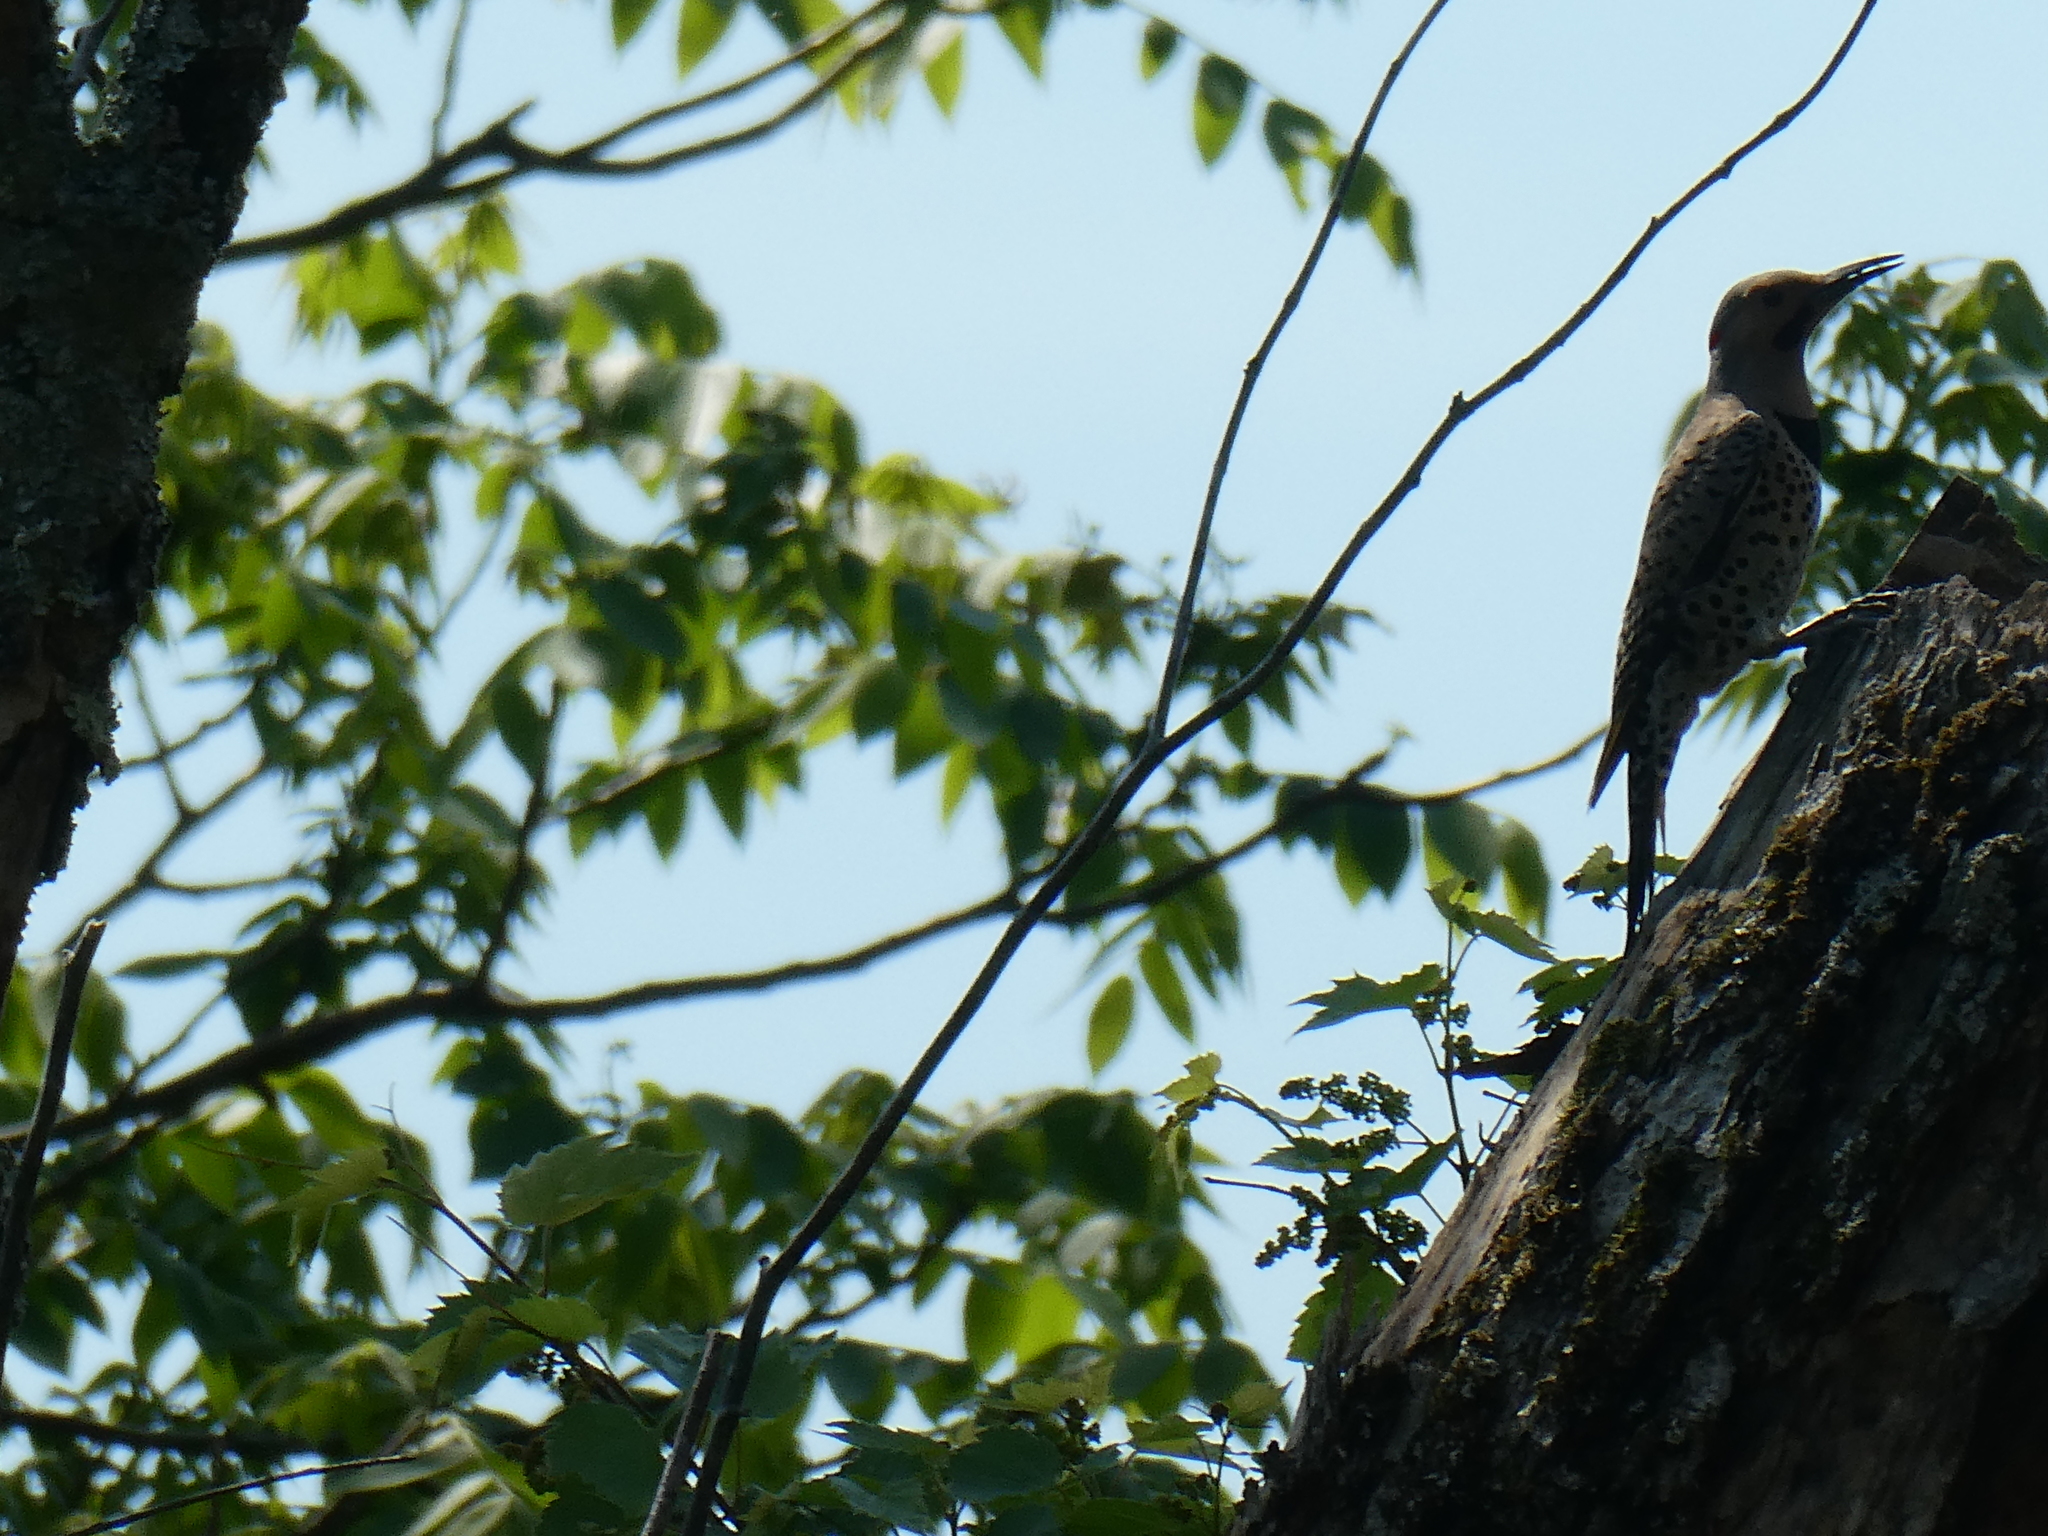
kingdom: Animalia
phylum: Chordata
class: Aves
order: Piciformes
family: Picidae
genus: Colaptes
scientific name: Colaptes auratus
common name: Northern flicker
